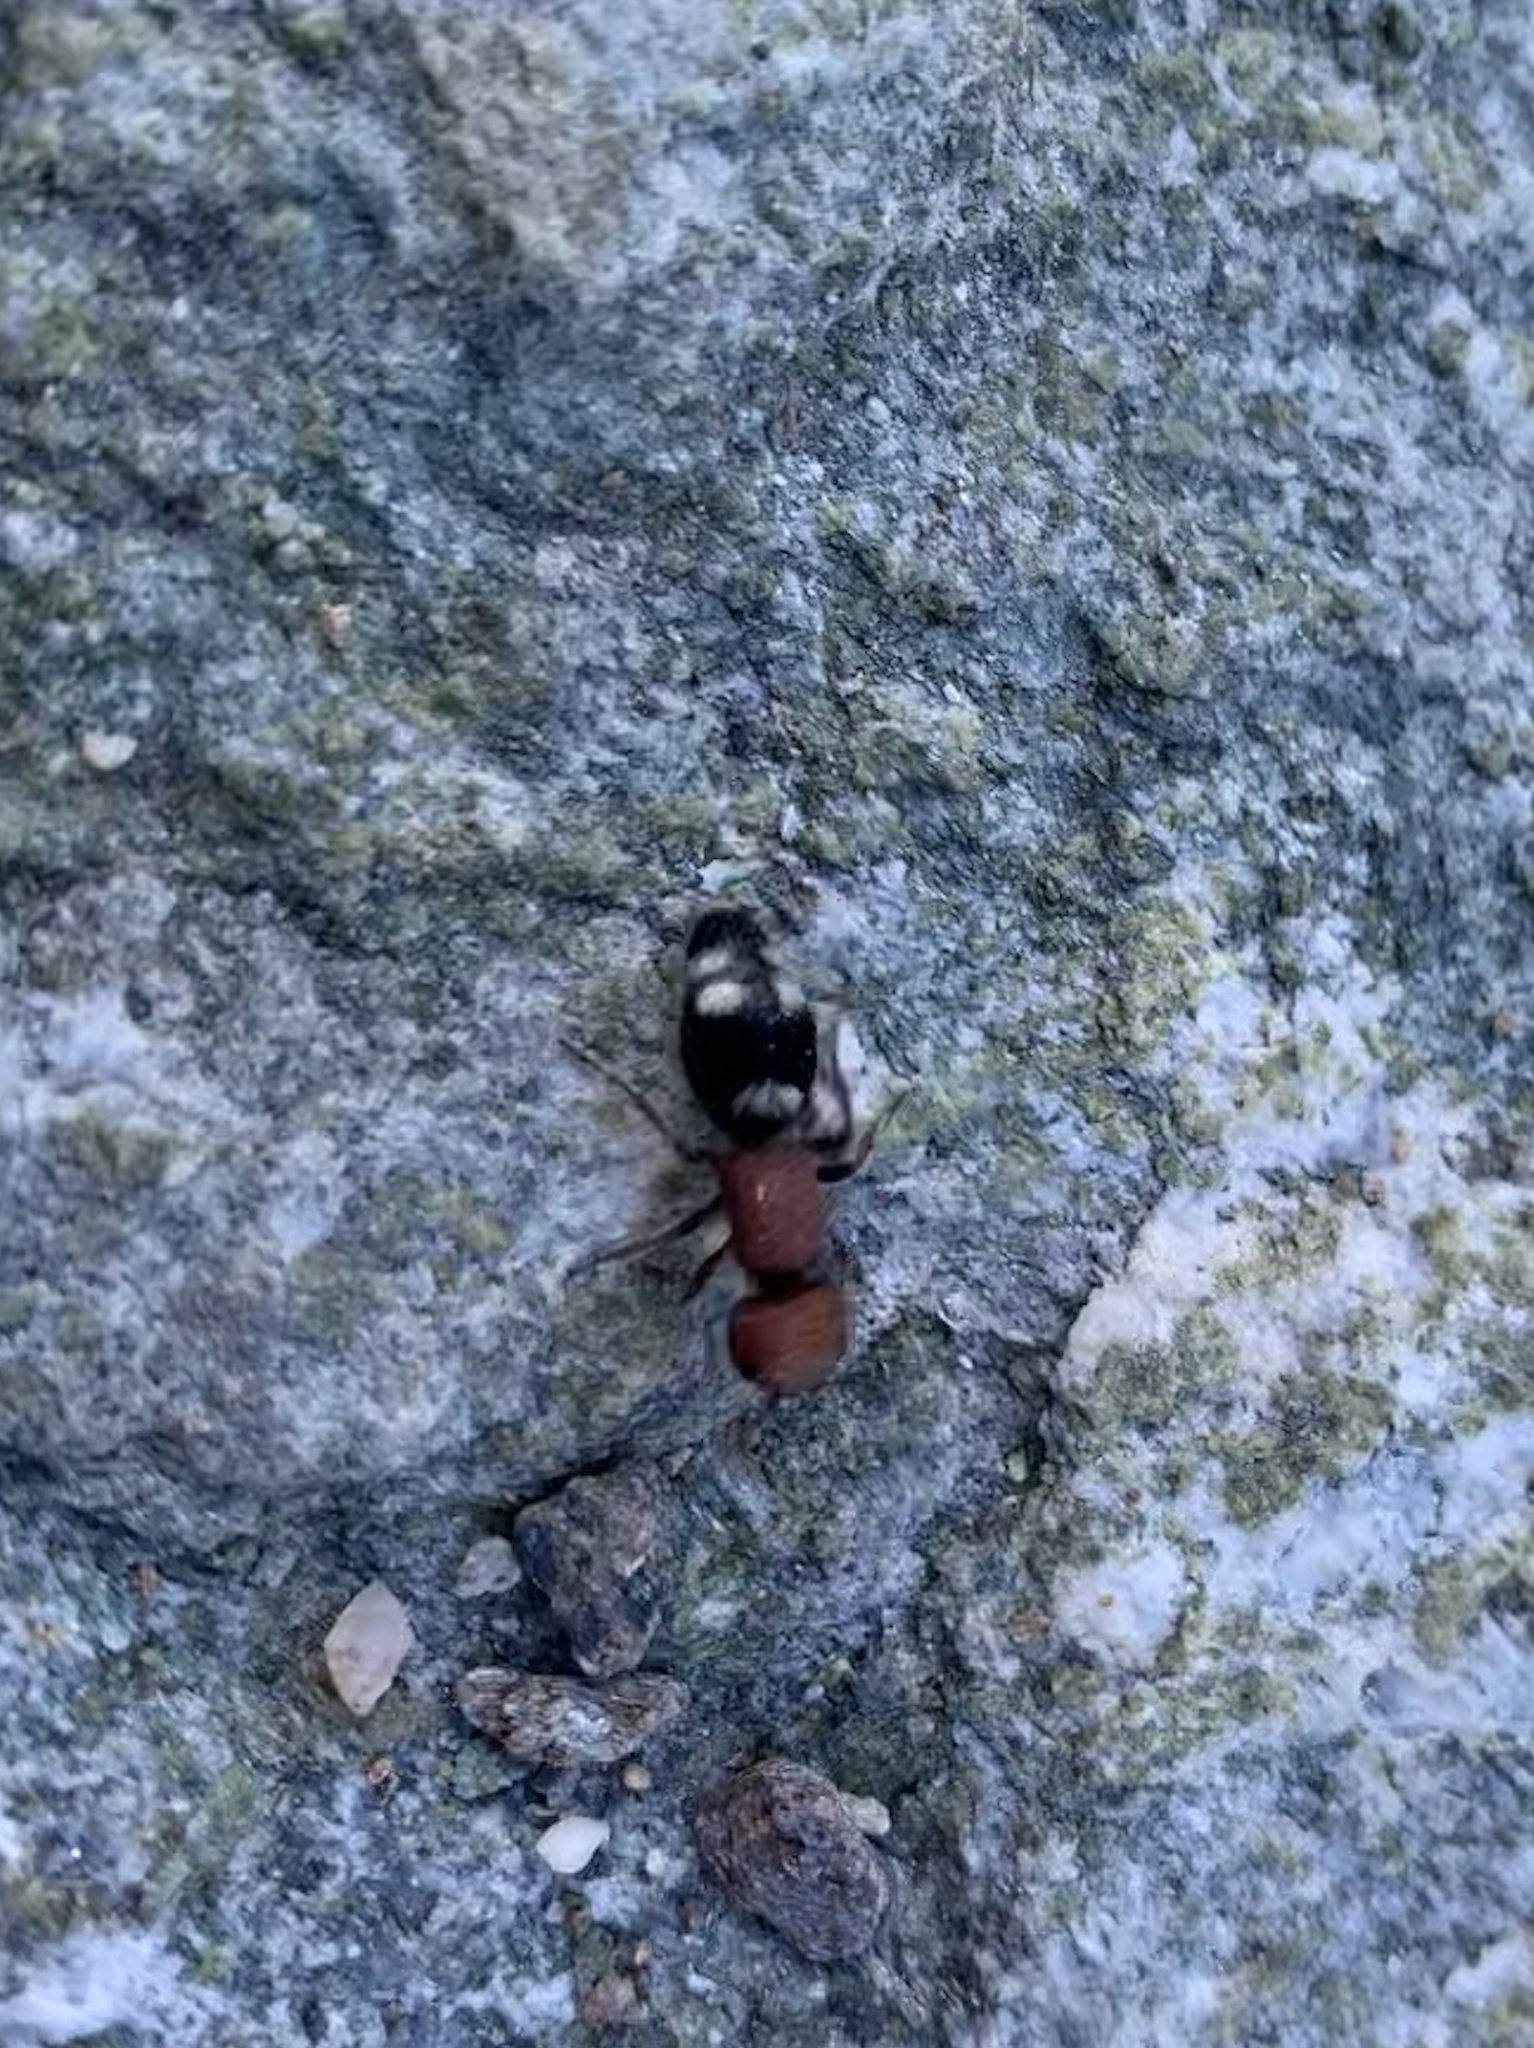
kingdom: Animalia
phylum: Arthropoda
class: Insecta
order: Hymenoptera
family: Mutillidae
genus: Mutilla
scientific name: Mutilla quinquemaculata
